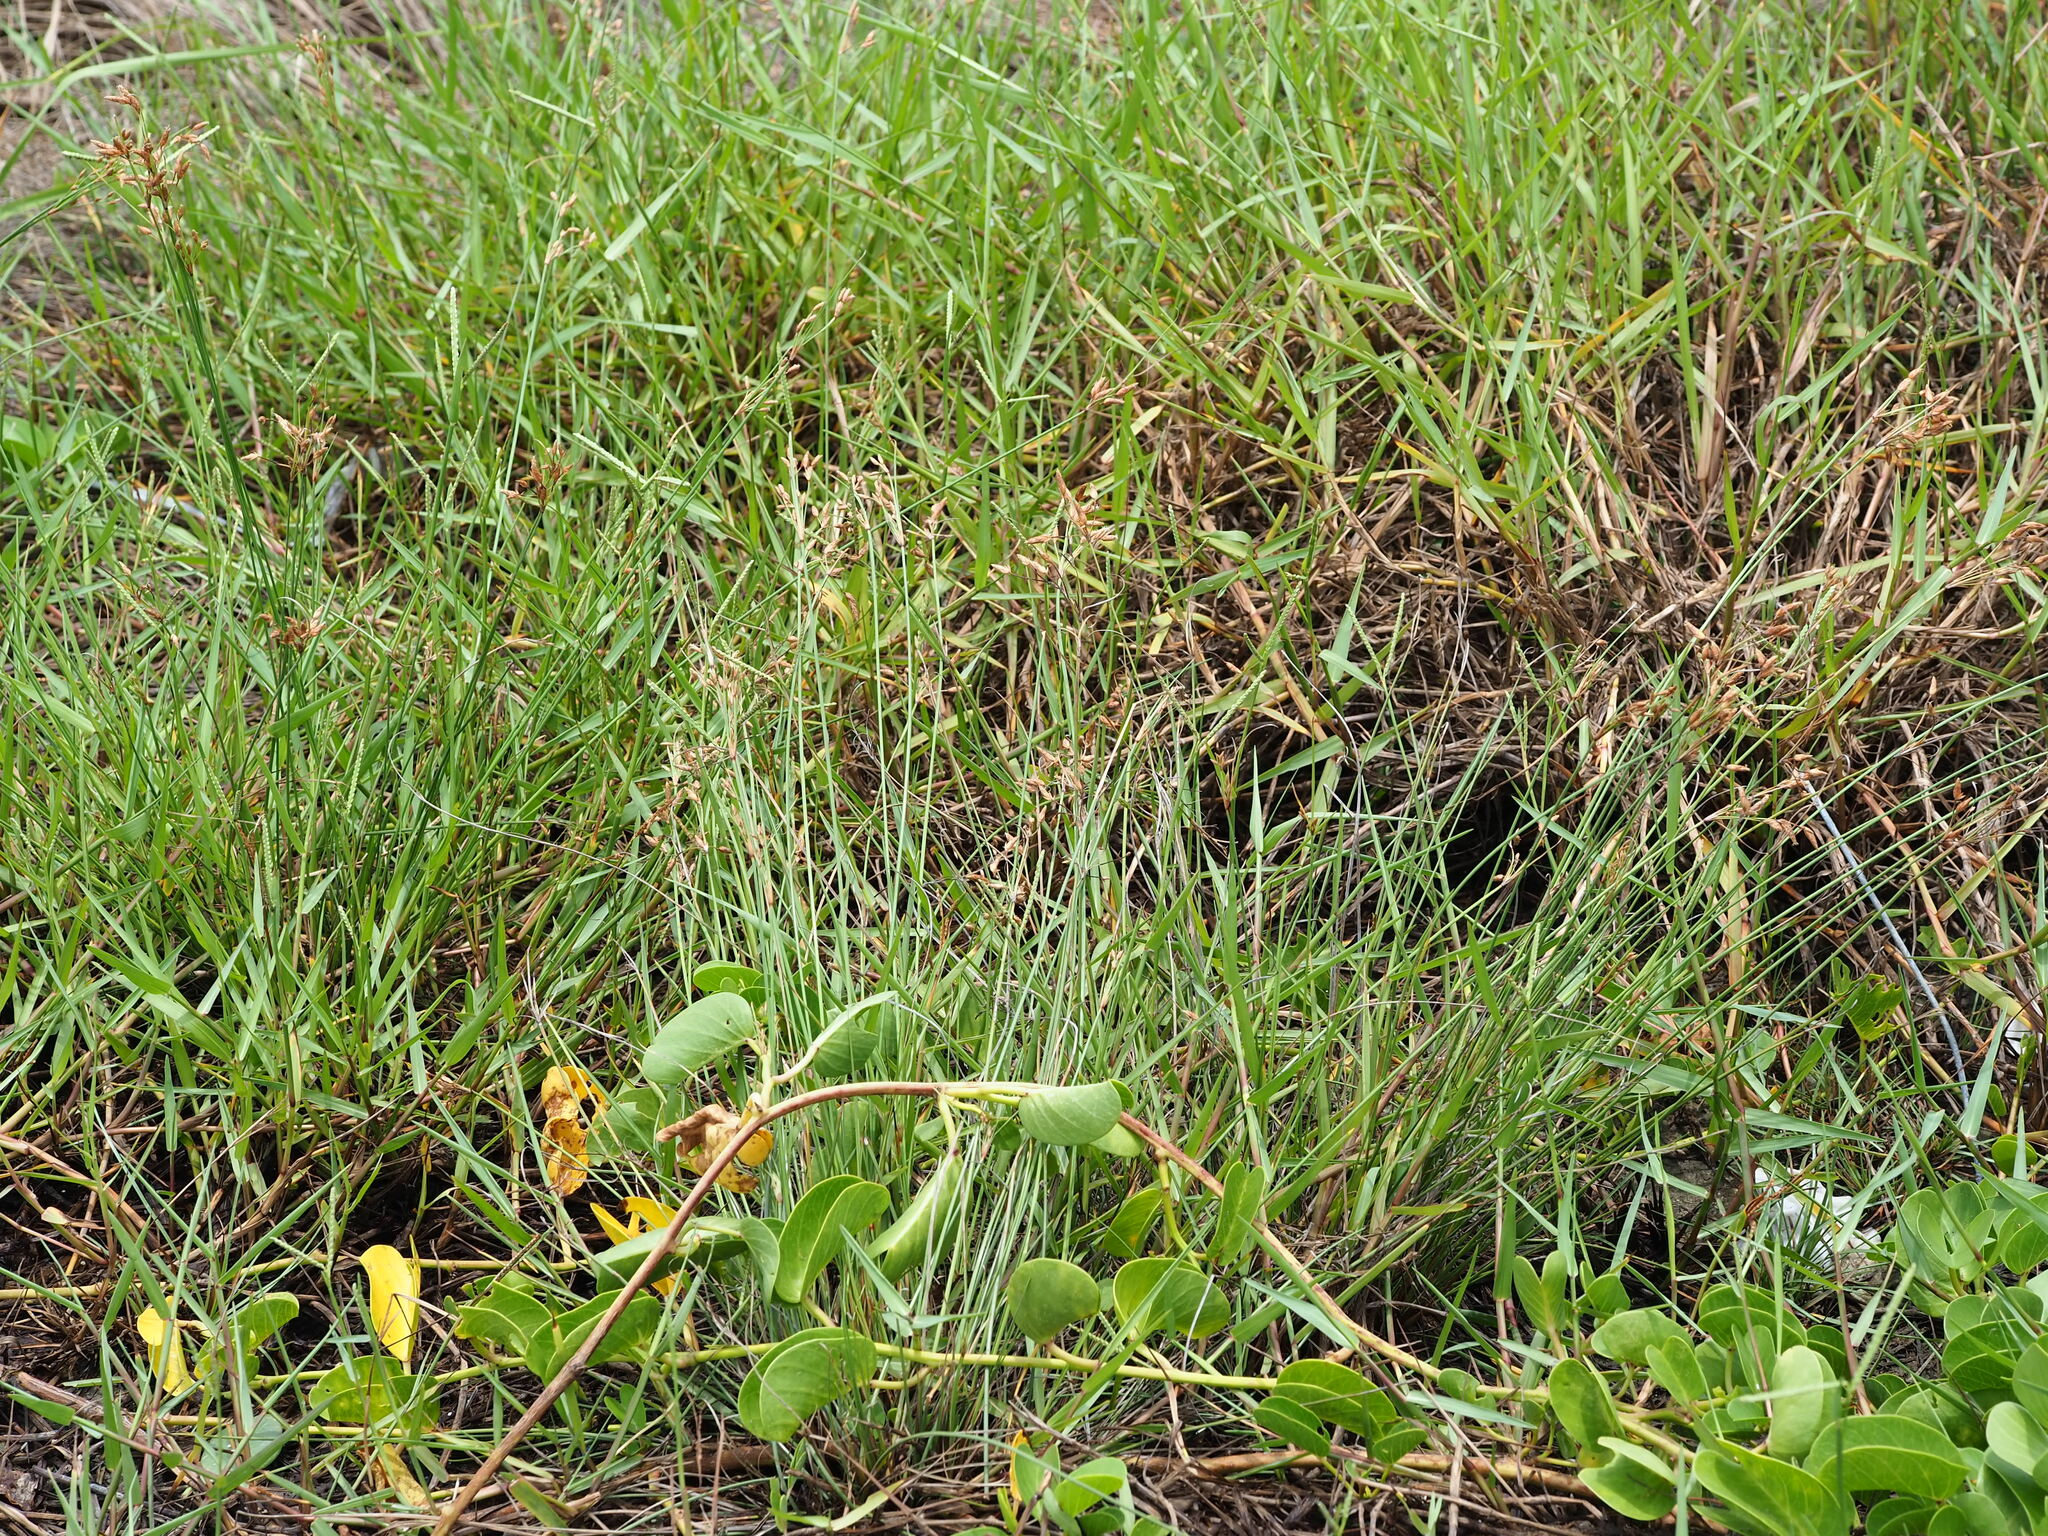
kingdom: Plantae
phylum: Tracheophyta
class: Liliopsida
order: Poales
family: Cyperaceae
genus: Fimbristylis
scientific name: Fimbristylis sieboldii
